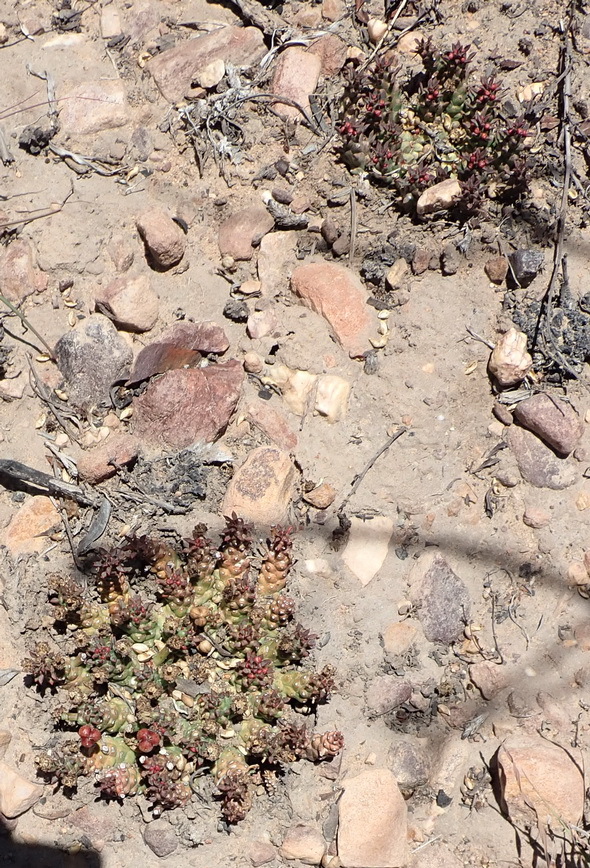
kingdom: Plantae
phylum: Tracheophyta
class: Magnoliopsida
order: Malpighiales
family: Euphorbiaceae
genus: Euphorbia
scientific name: Euphorbia procumbens
